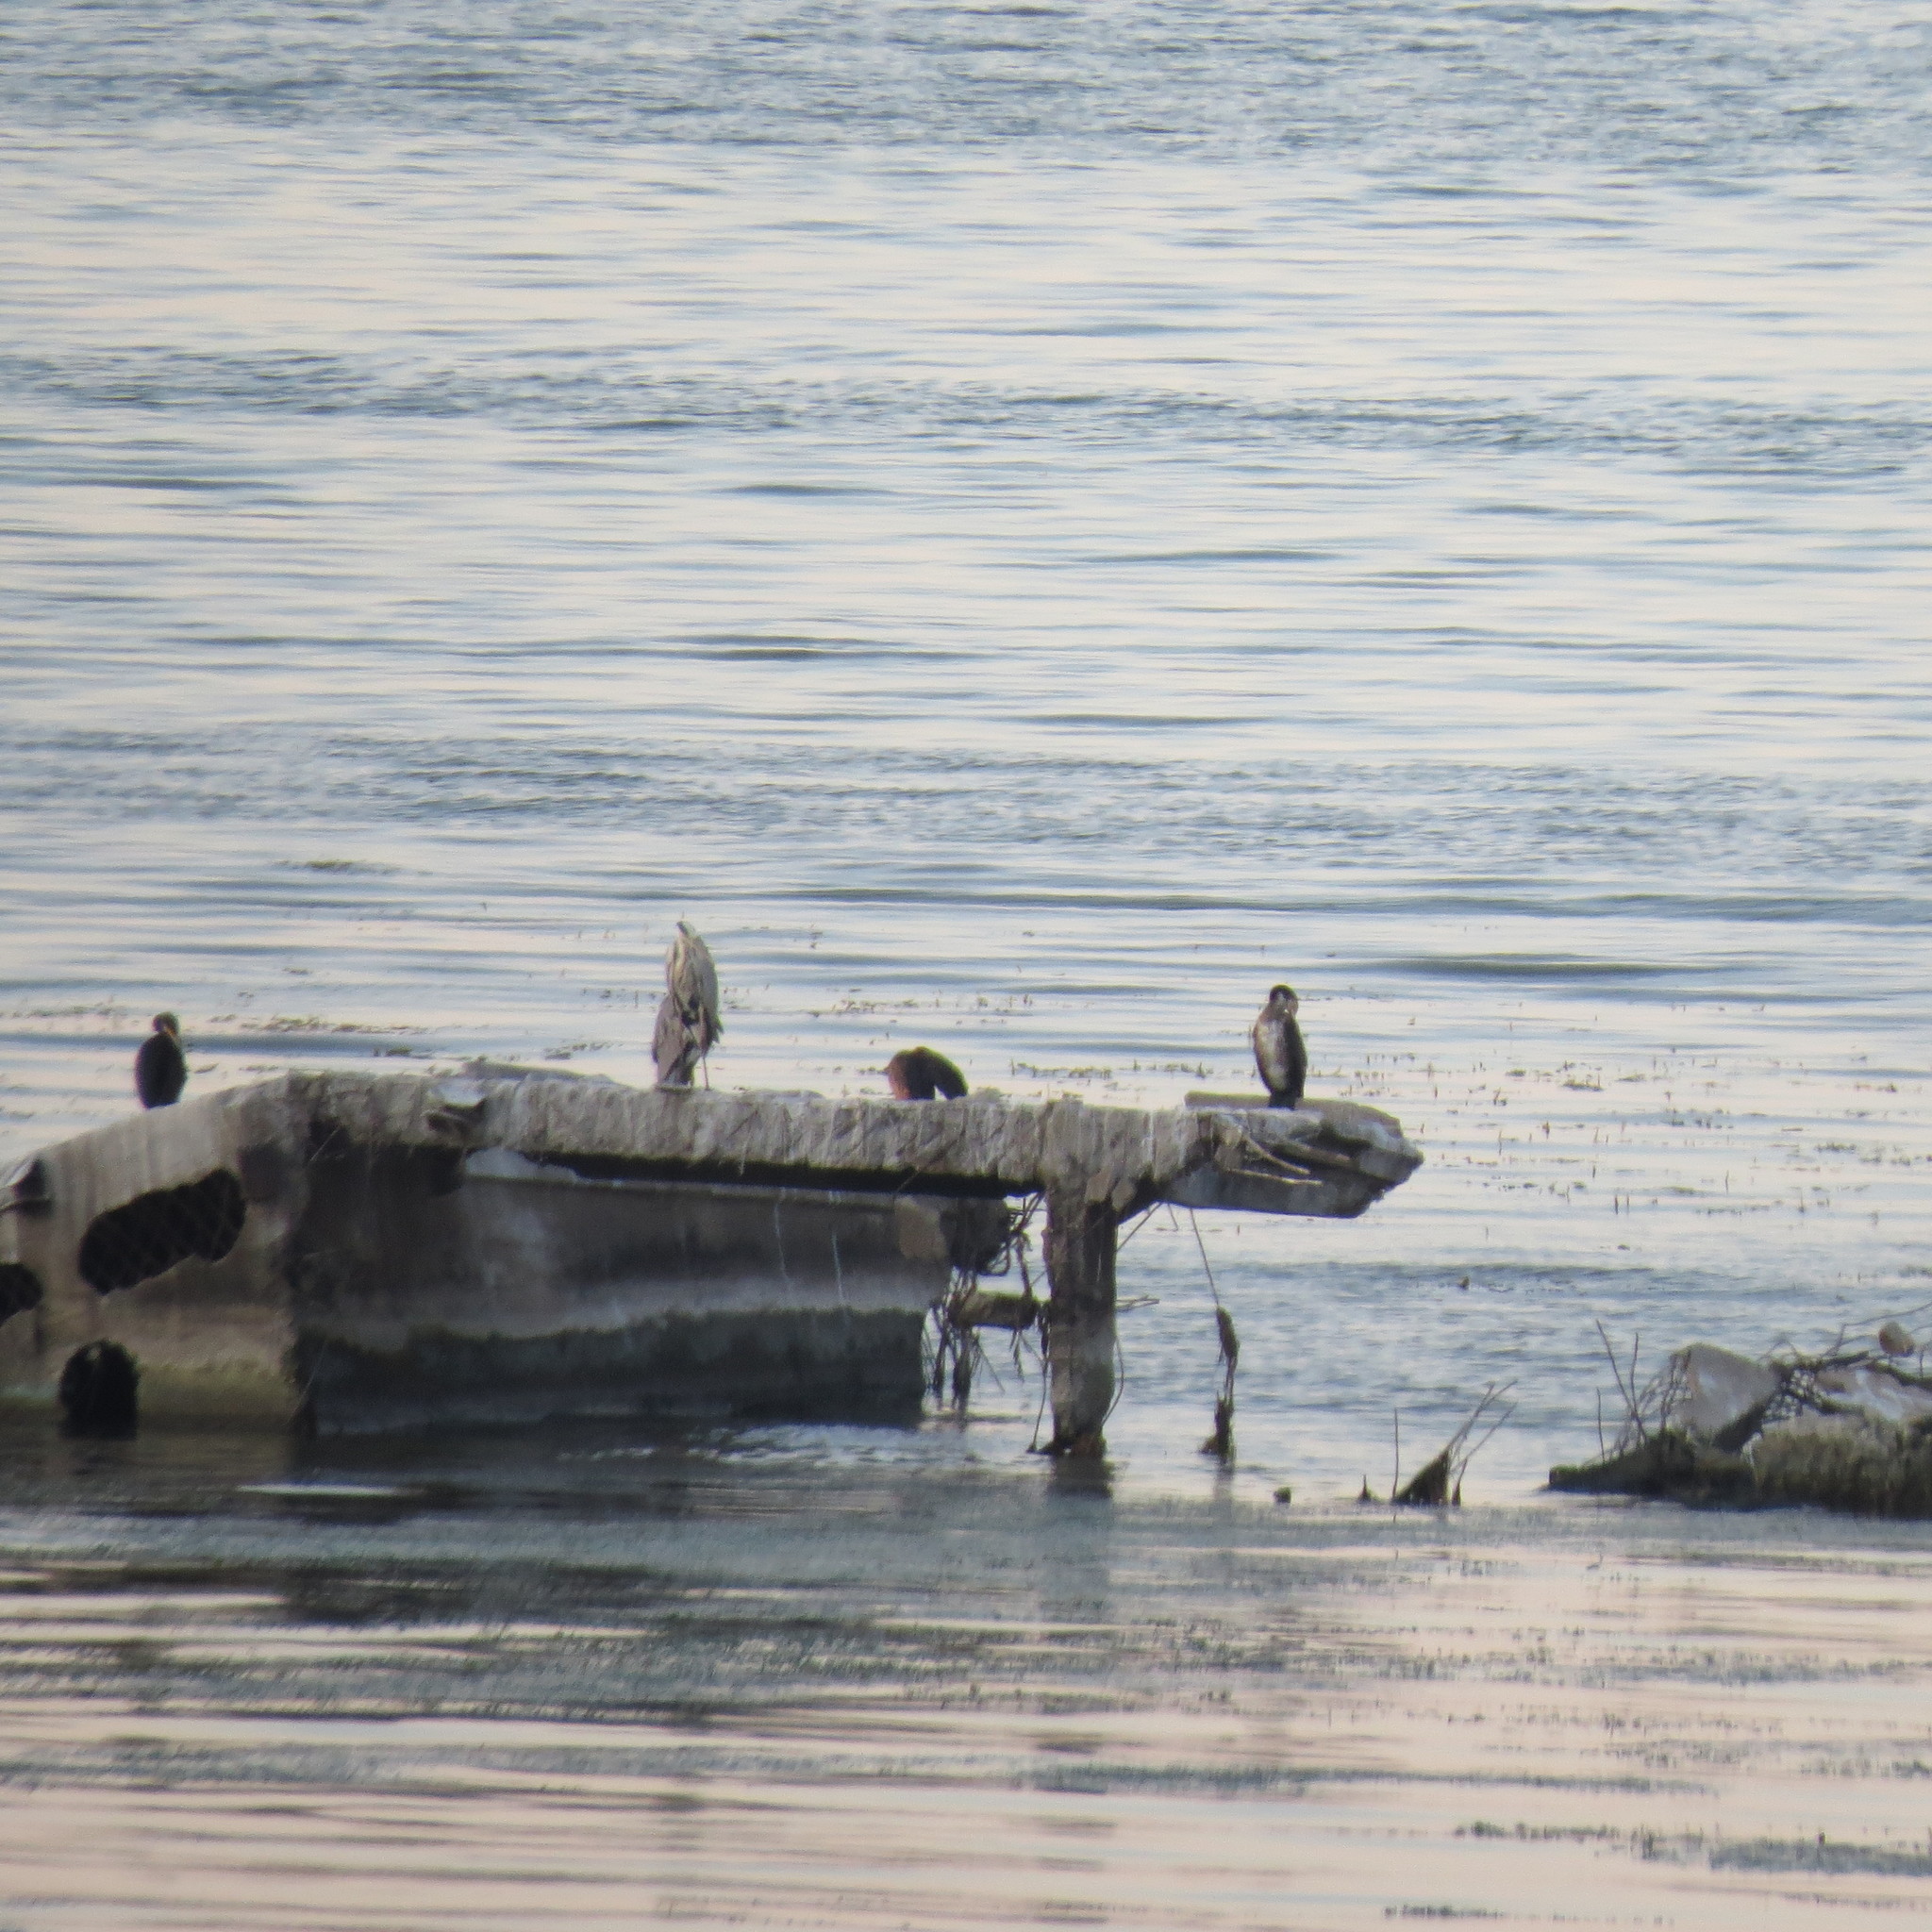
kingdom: Animalia
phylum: Chordata
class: Aves
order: Suliformes
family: Phalacrocoracidae
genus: Phalacrocorax
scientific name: Phalacrocorax carbo
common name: Great cormorant
